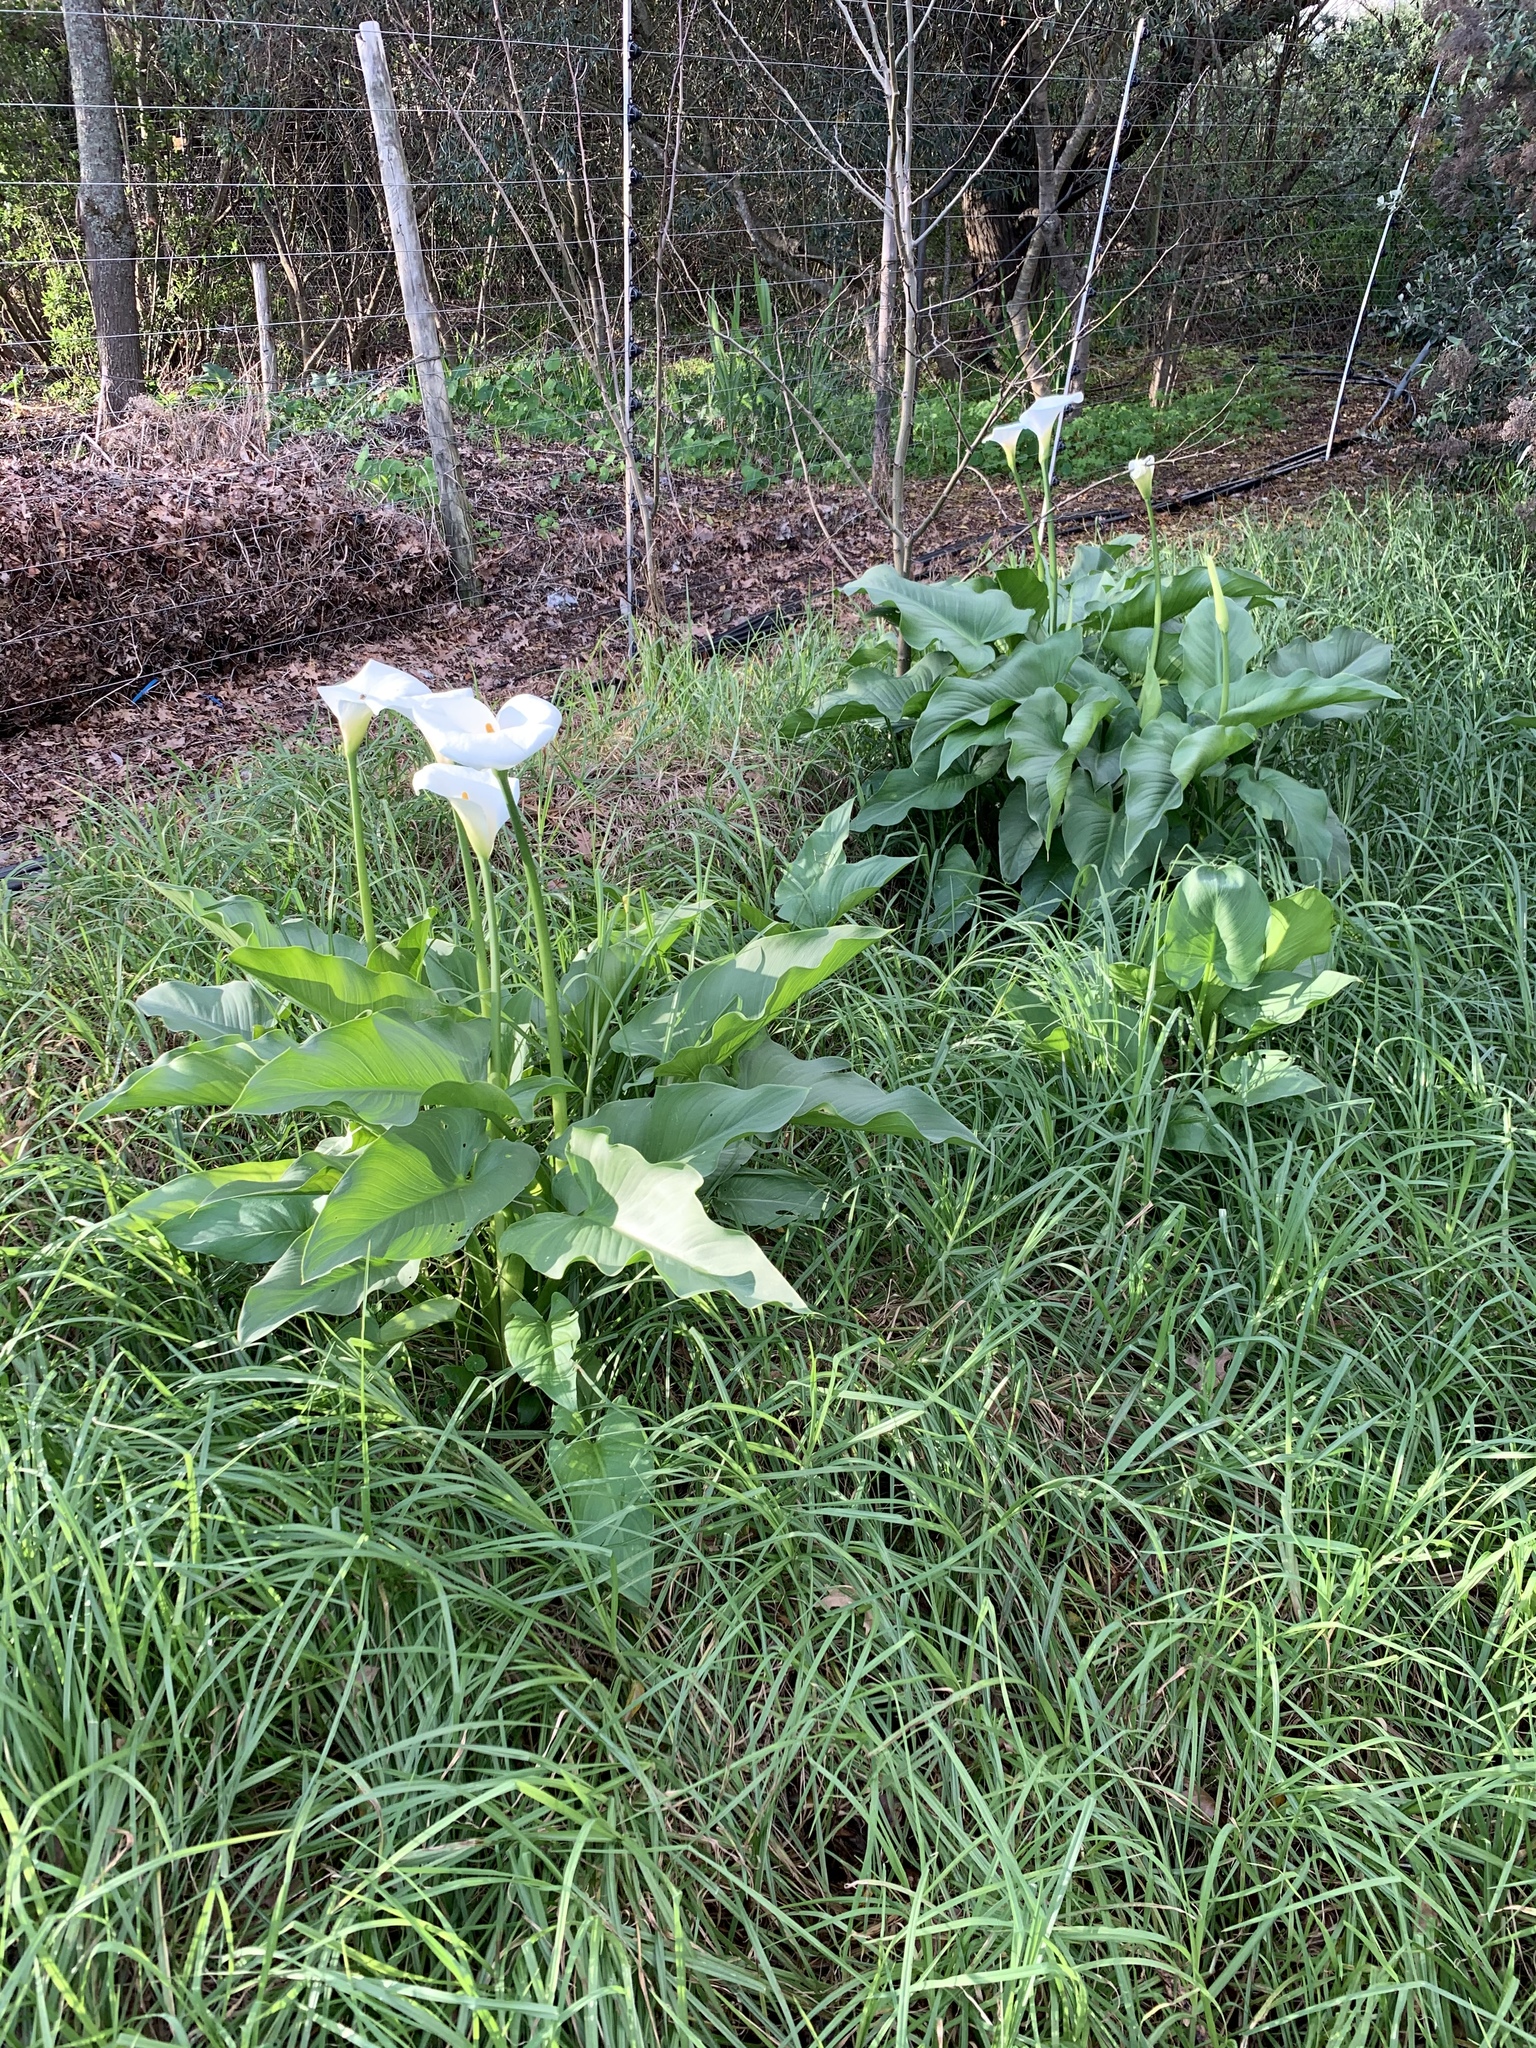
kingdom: Plantae
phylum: Tracheophyta
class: Liliopsida
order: Alismatales
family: Araceae
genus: Zantedeschia
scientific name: Zantedeschia aethiopica
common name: Altar-lily
